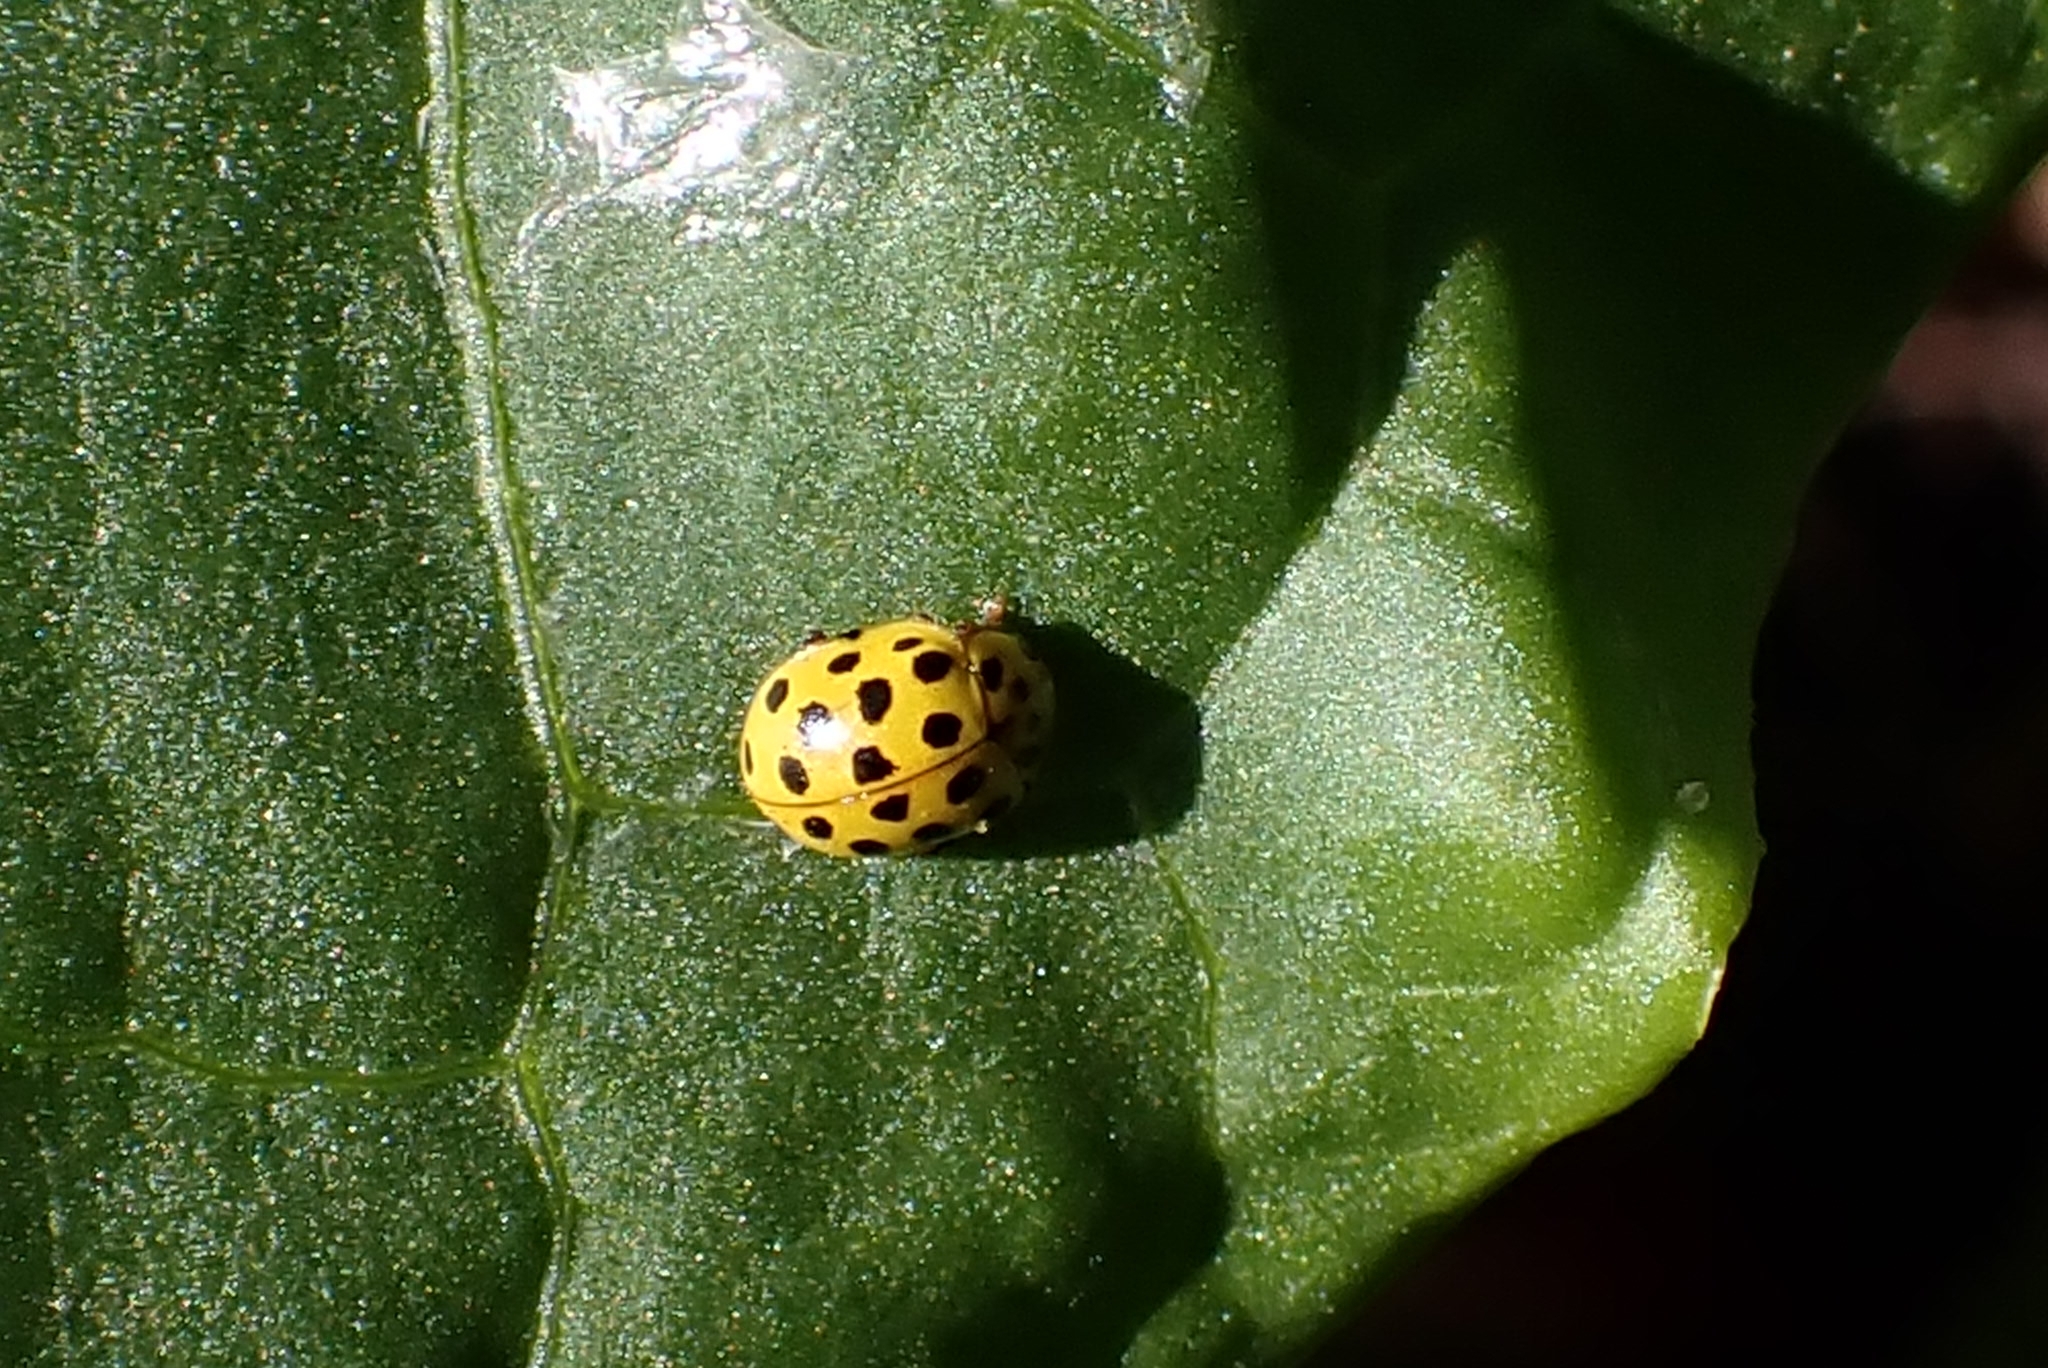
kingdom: Animalia
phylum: Arthropoda
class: Insecta
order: Coleoptera
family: Coccinellidae
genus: Psyllobora
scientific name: Psyllobora vigintiduopunctata
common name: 22-spot ladybird
